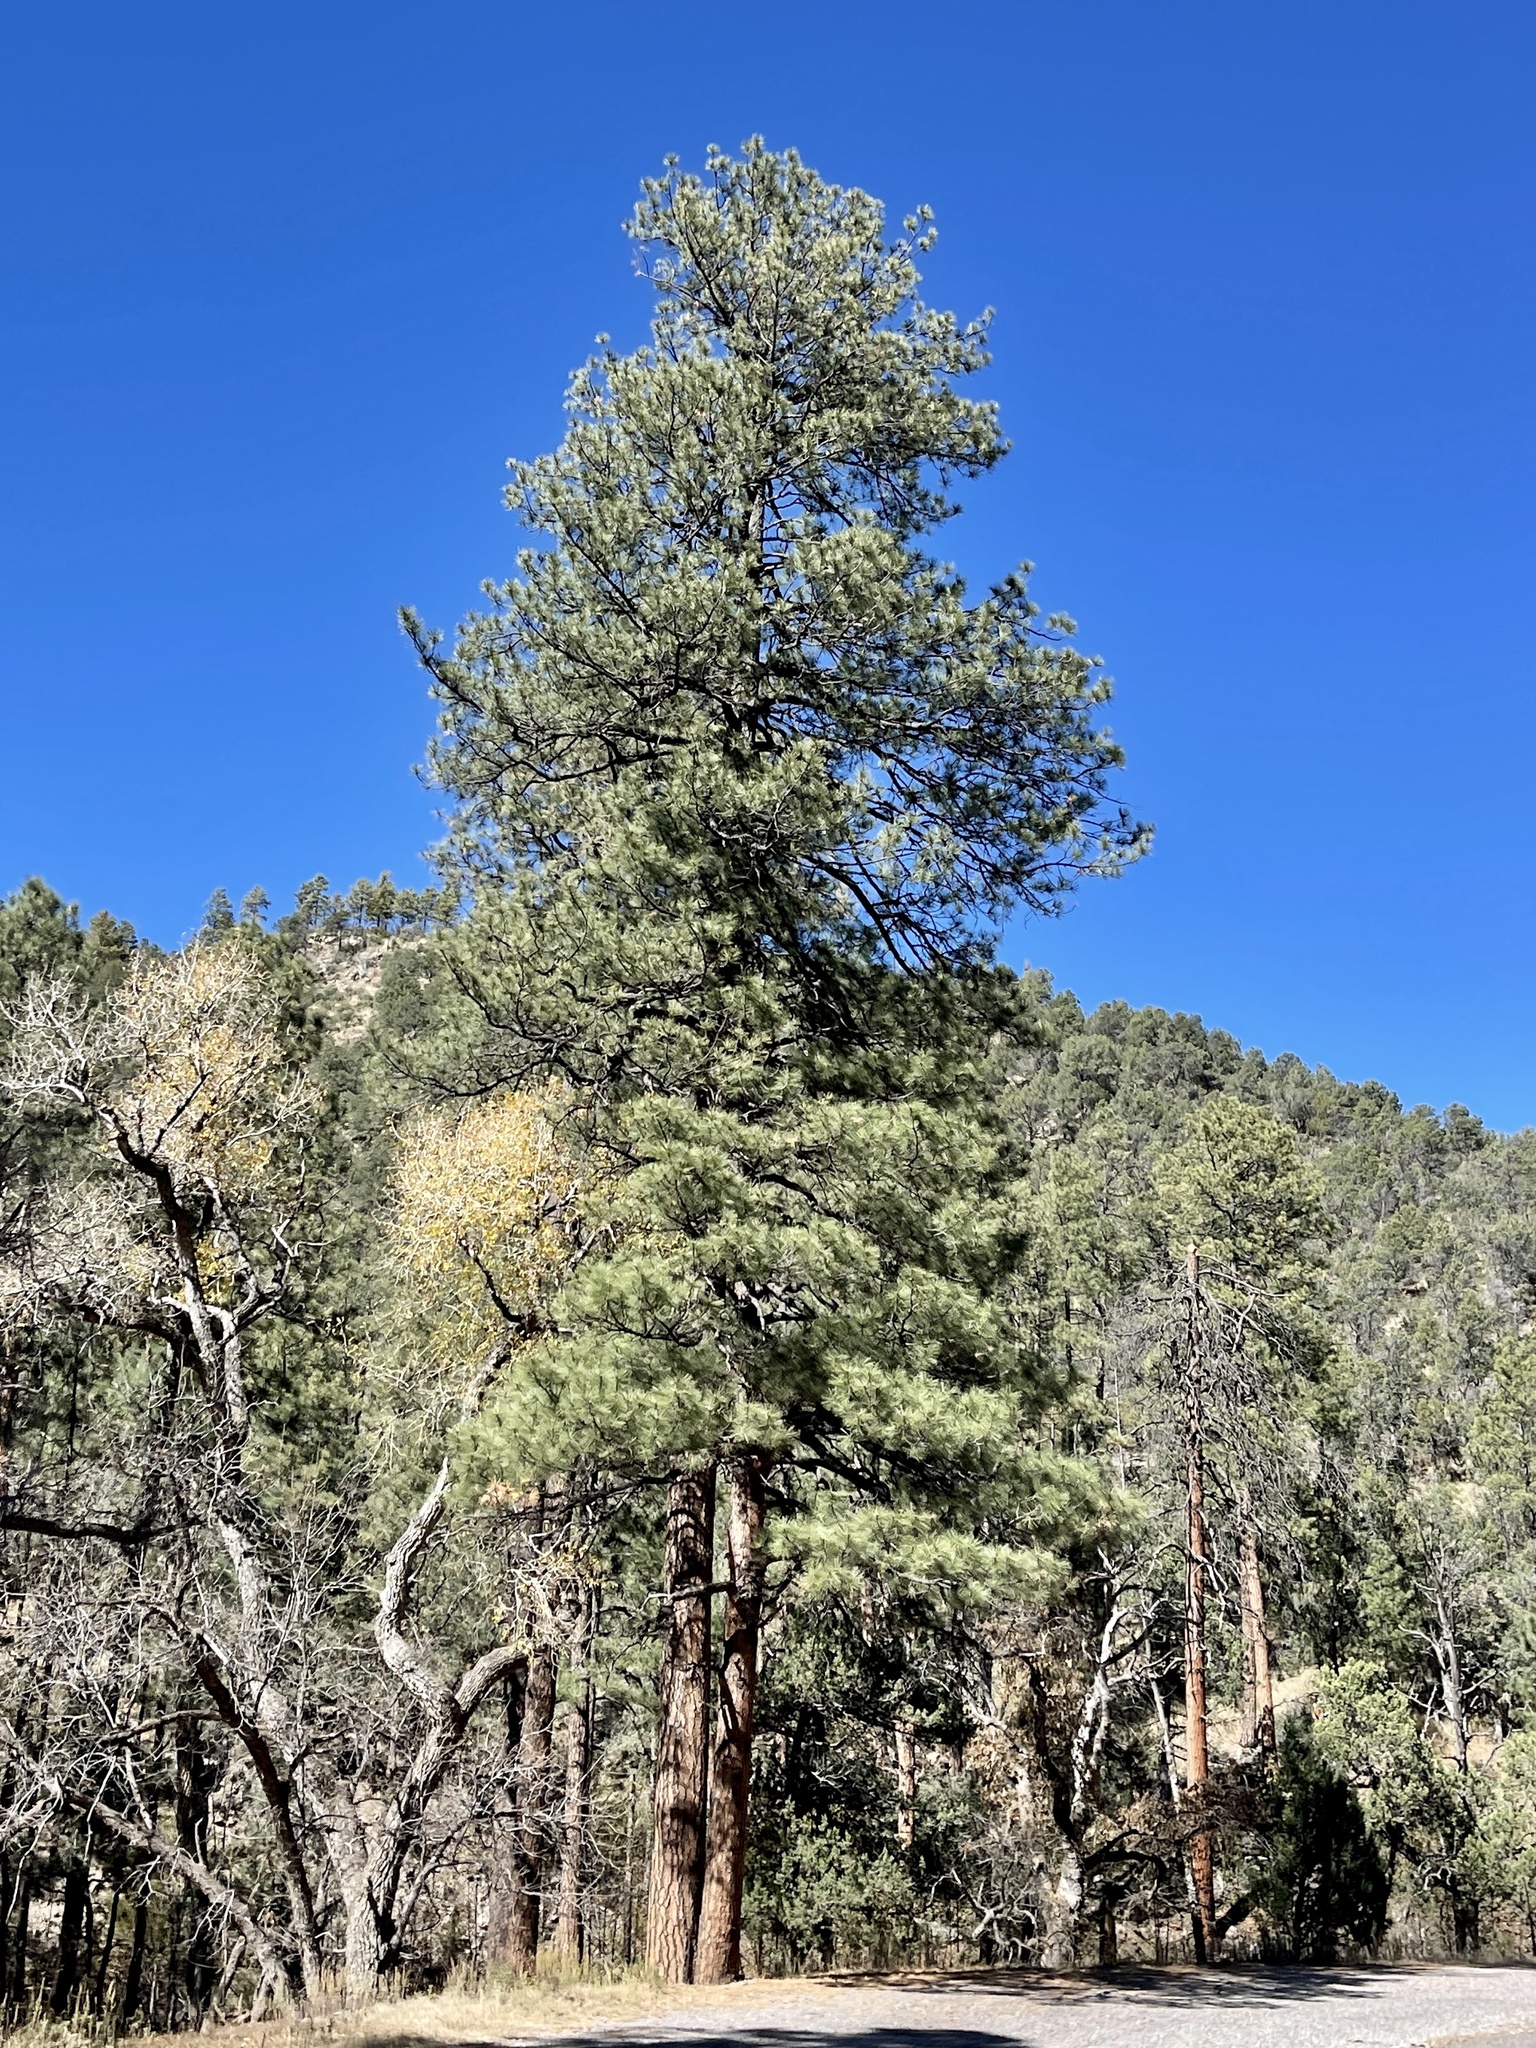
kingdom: Plantae
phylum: Tracheophyta
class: Pinopsida
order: Pinales
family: Pinaceae
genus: Pinus
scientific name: Pinus ponderosa
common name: Western yellow-pine
